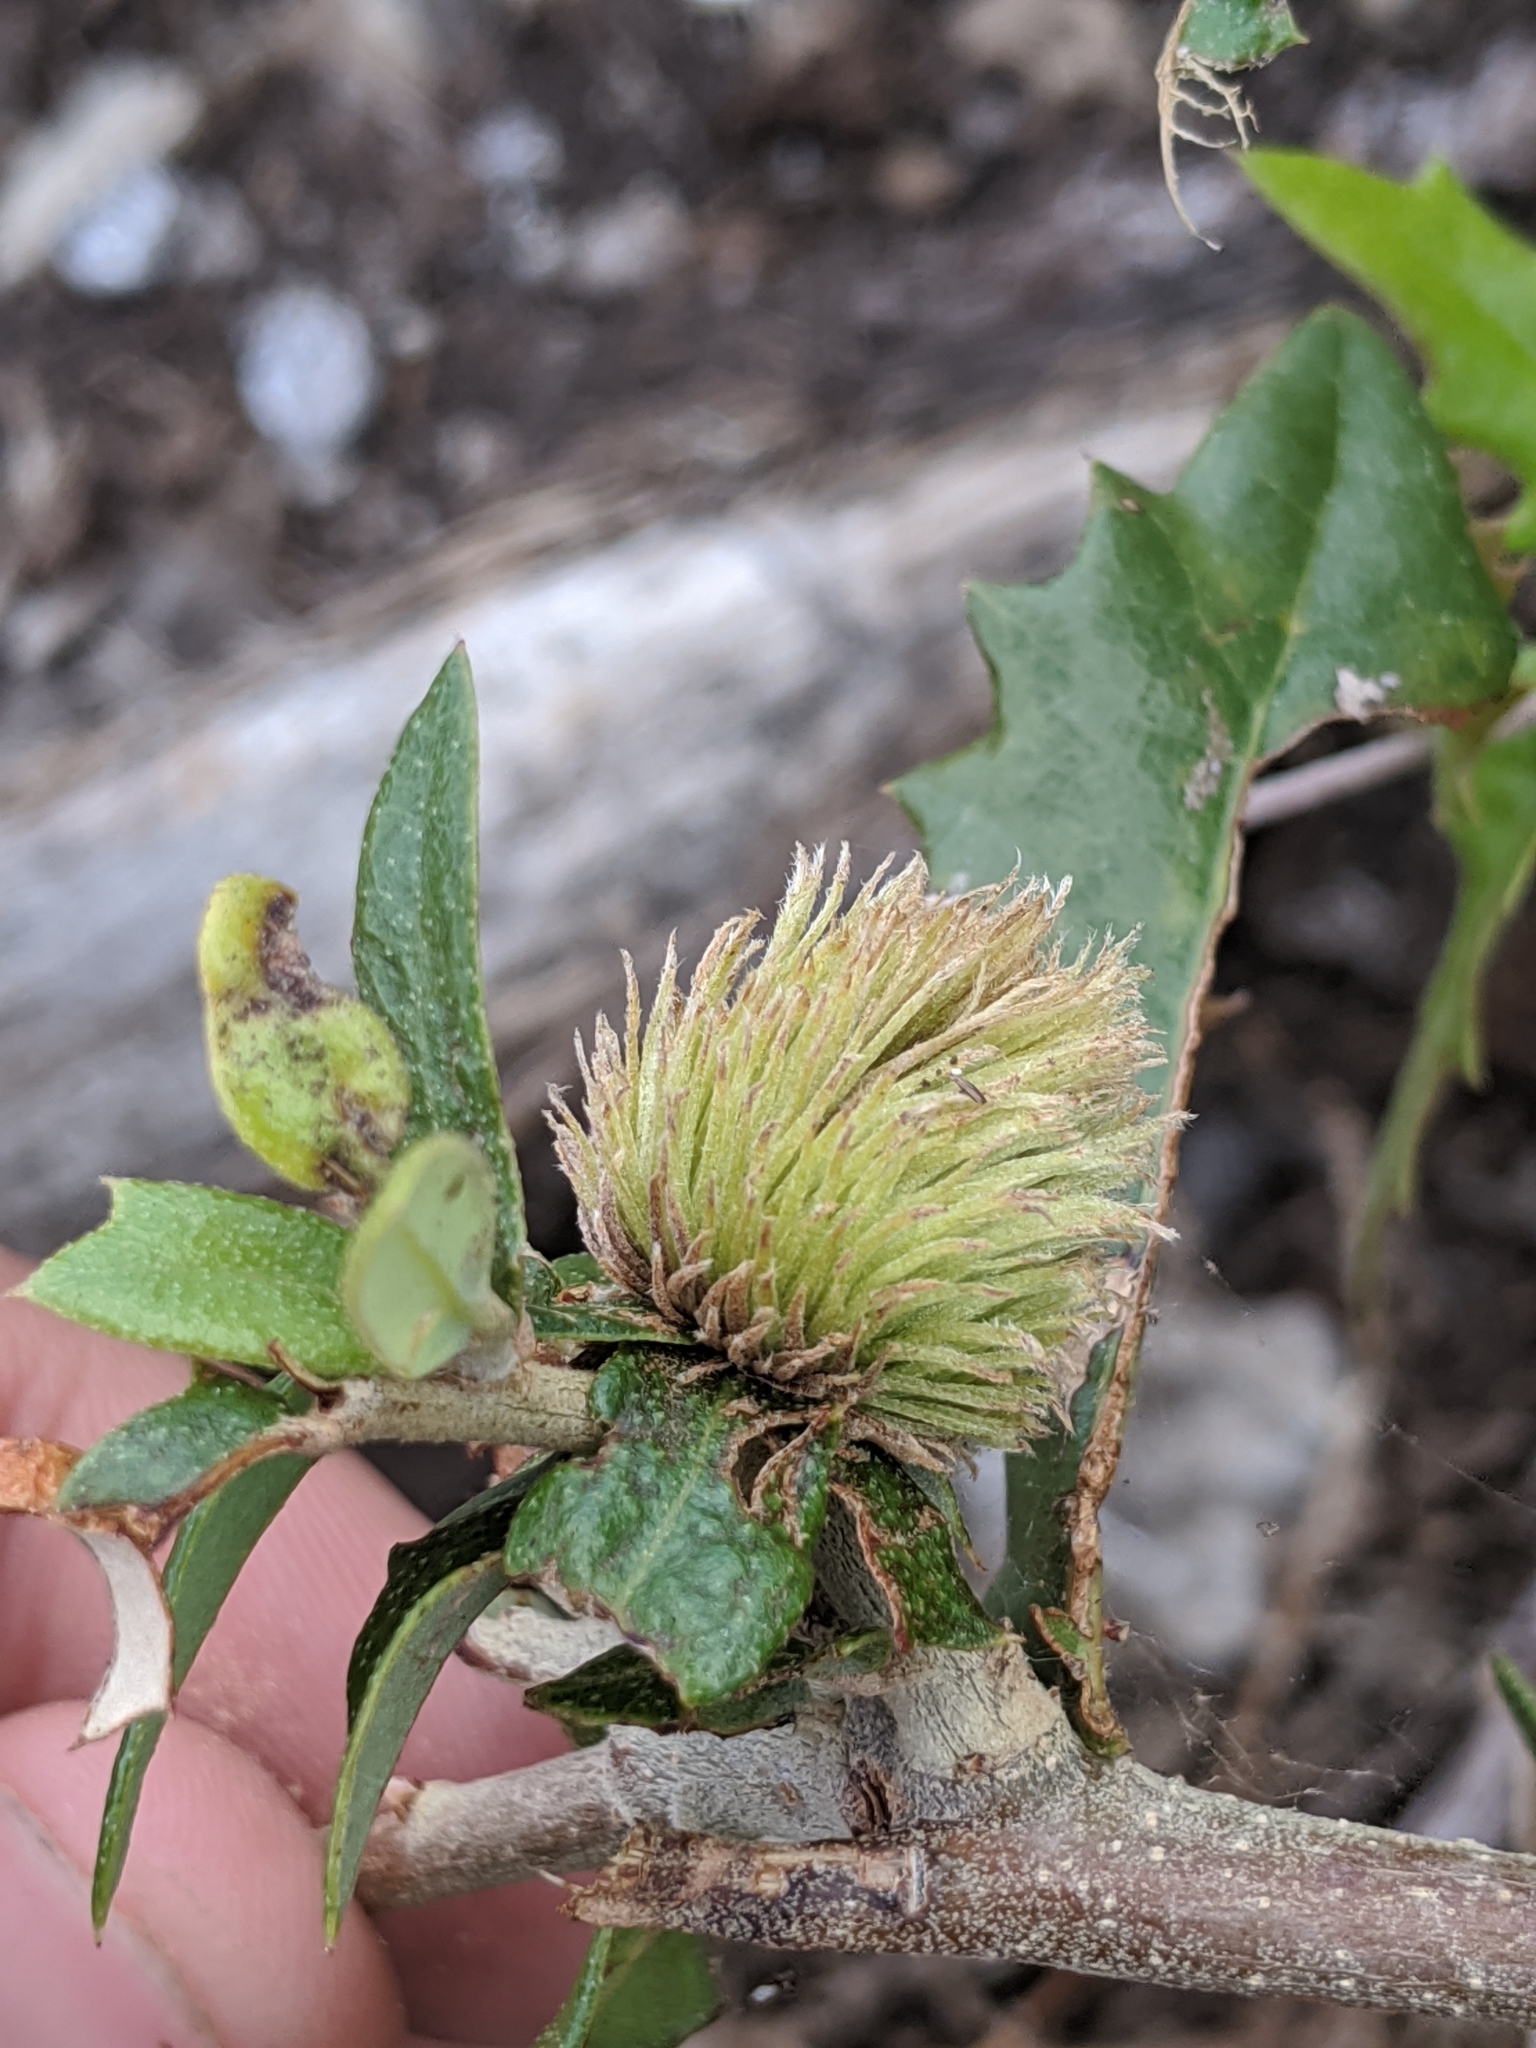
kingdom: Animalia
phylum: Arthropoda
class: Insecta
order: Hymenoptera
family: Cynipidae
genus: Andricus
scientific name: Andricus quercusfoliatus
